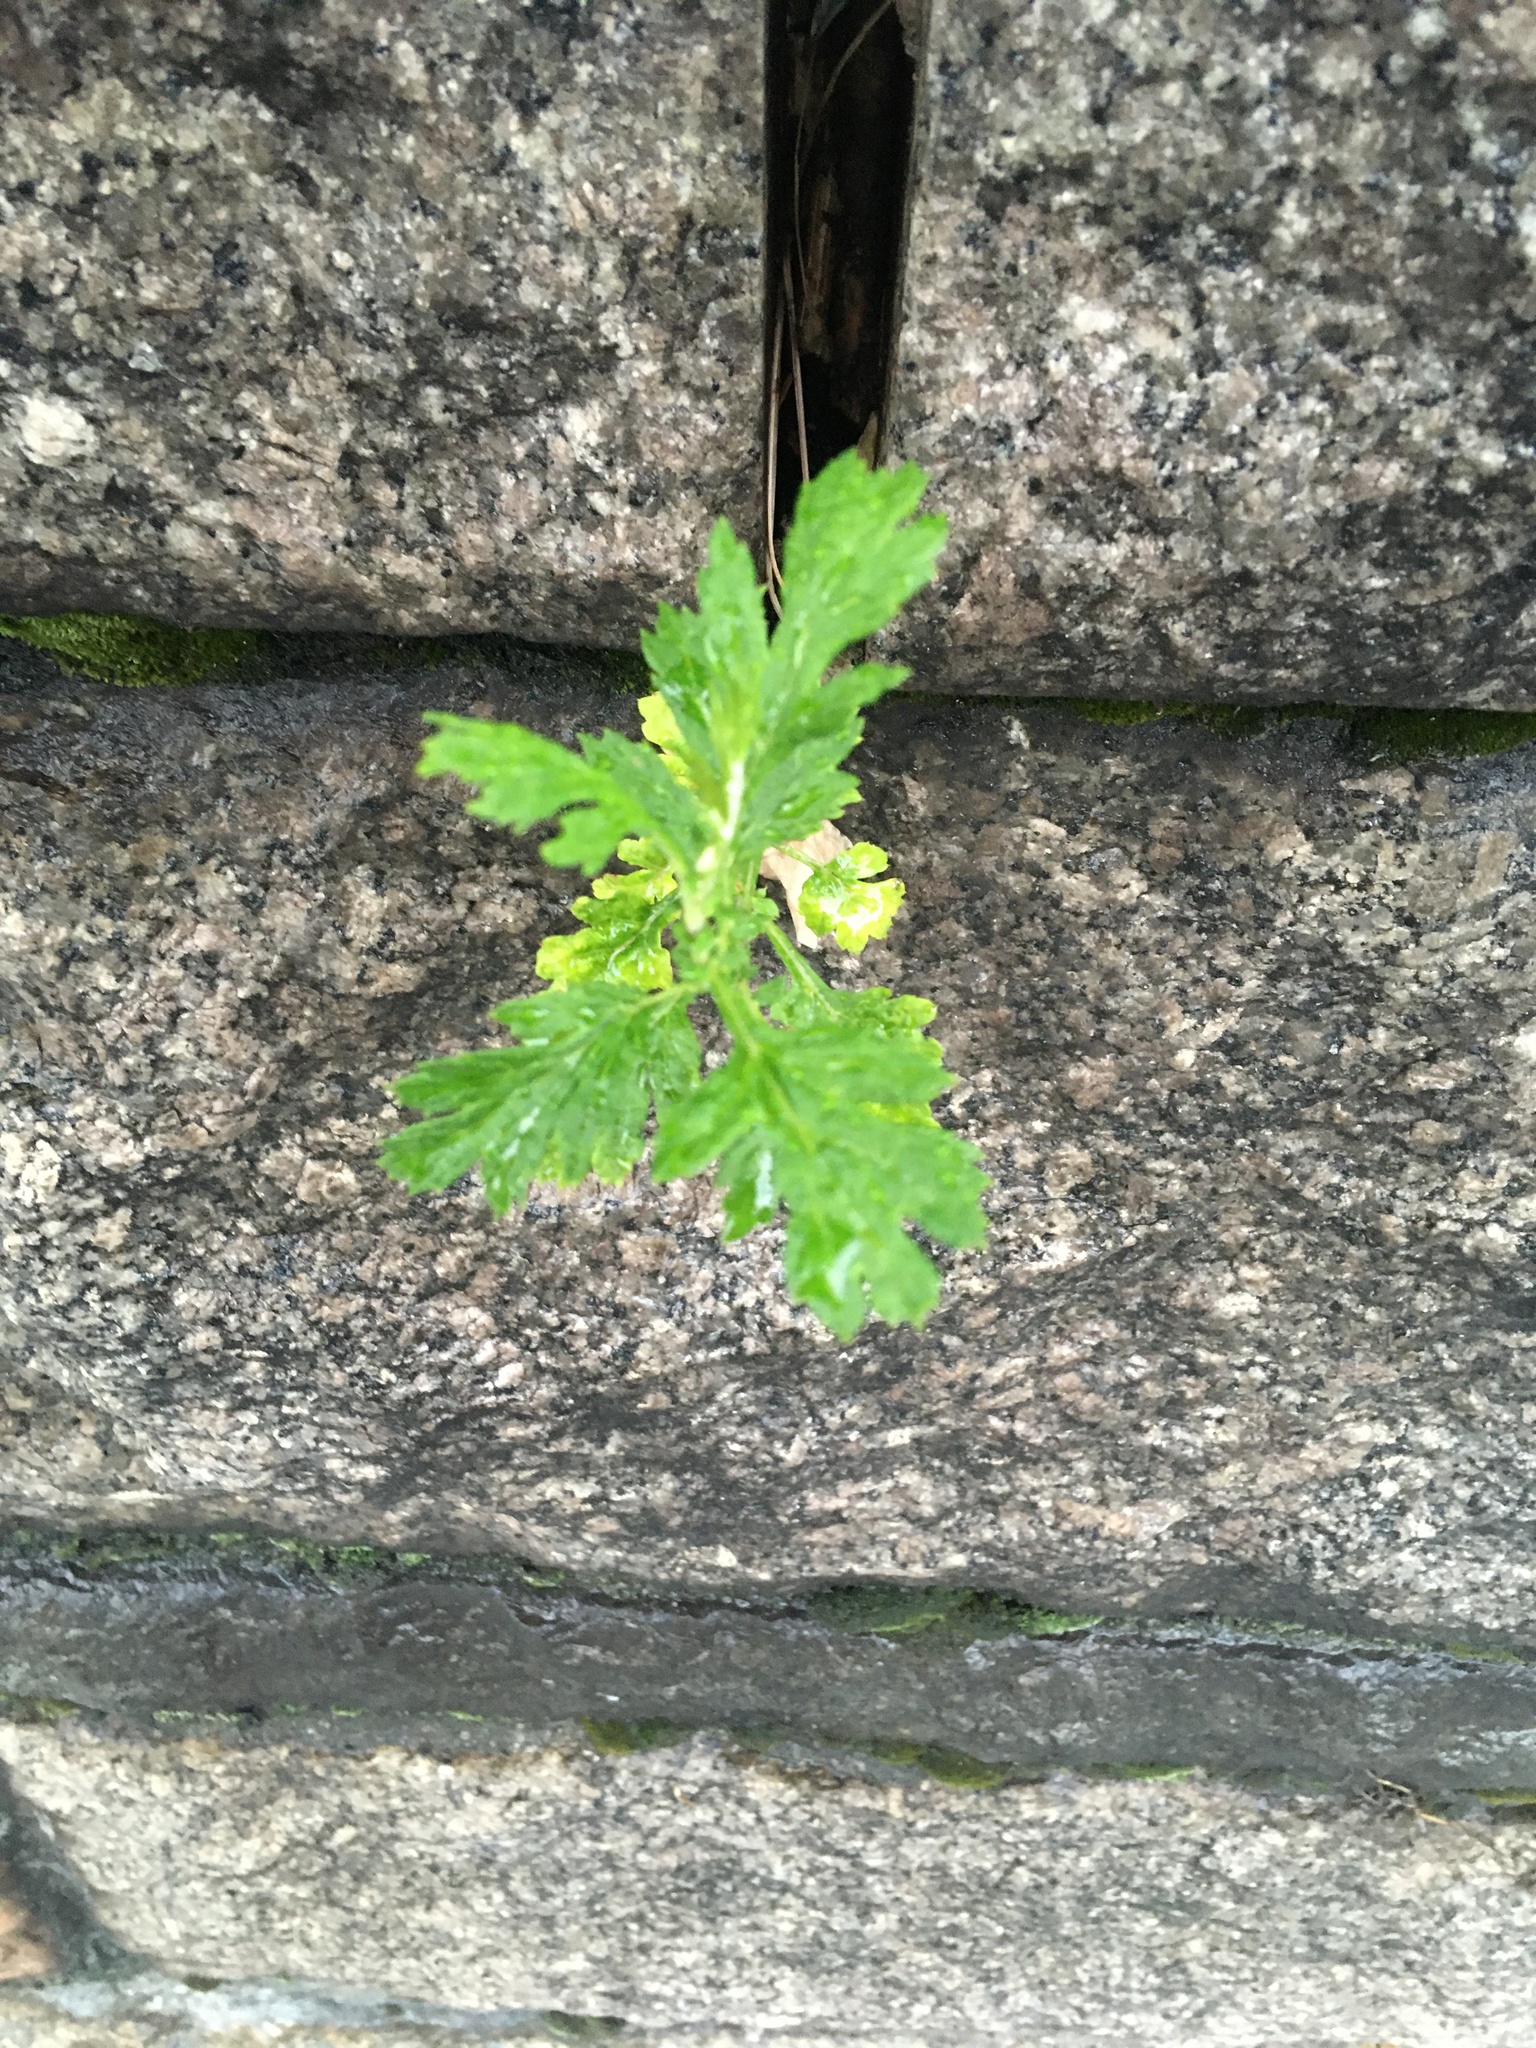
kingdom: Plantae
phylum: Tracheophyta
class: Magnoliopsida
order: Asterales
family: Asteraceae
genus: Artemisia
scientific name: Artemisia vulgaris
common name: Mugwort
